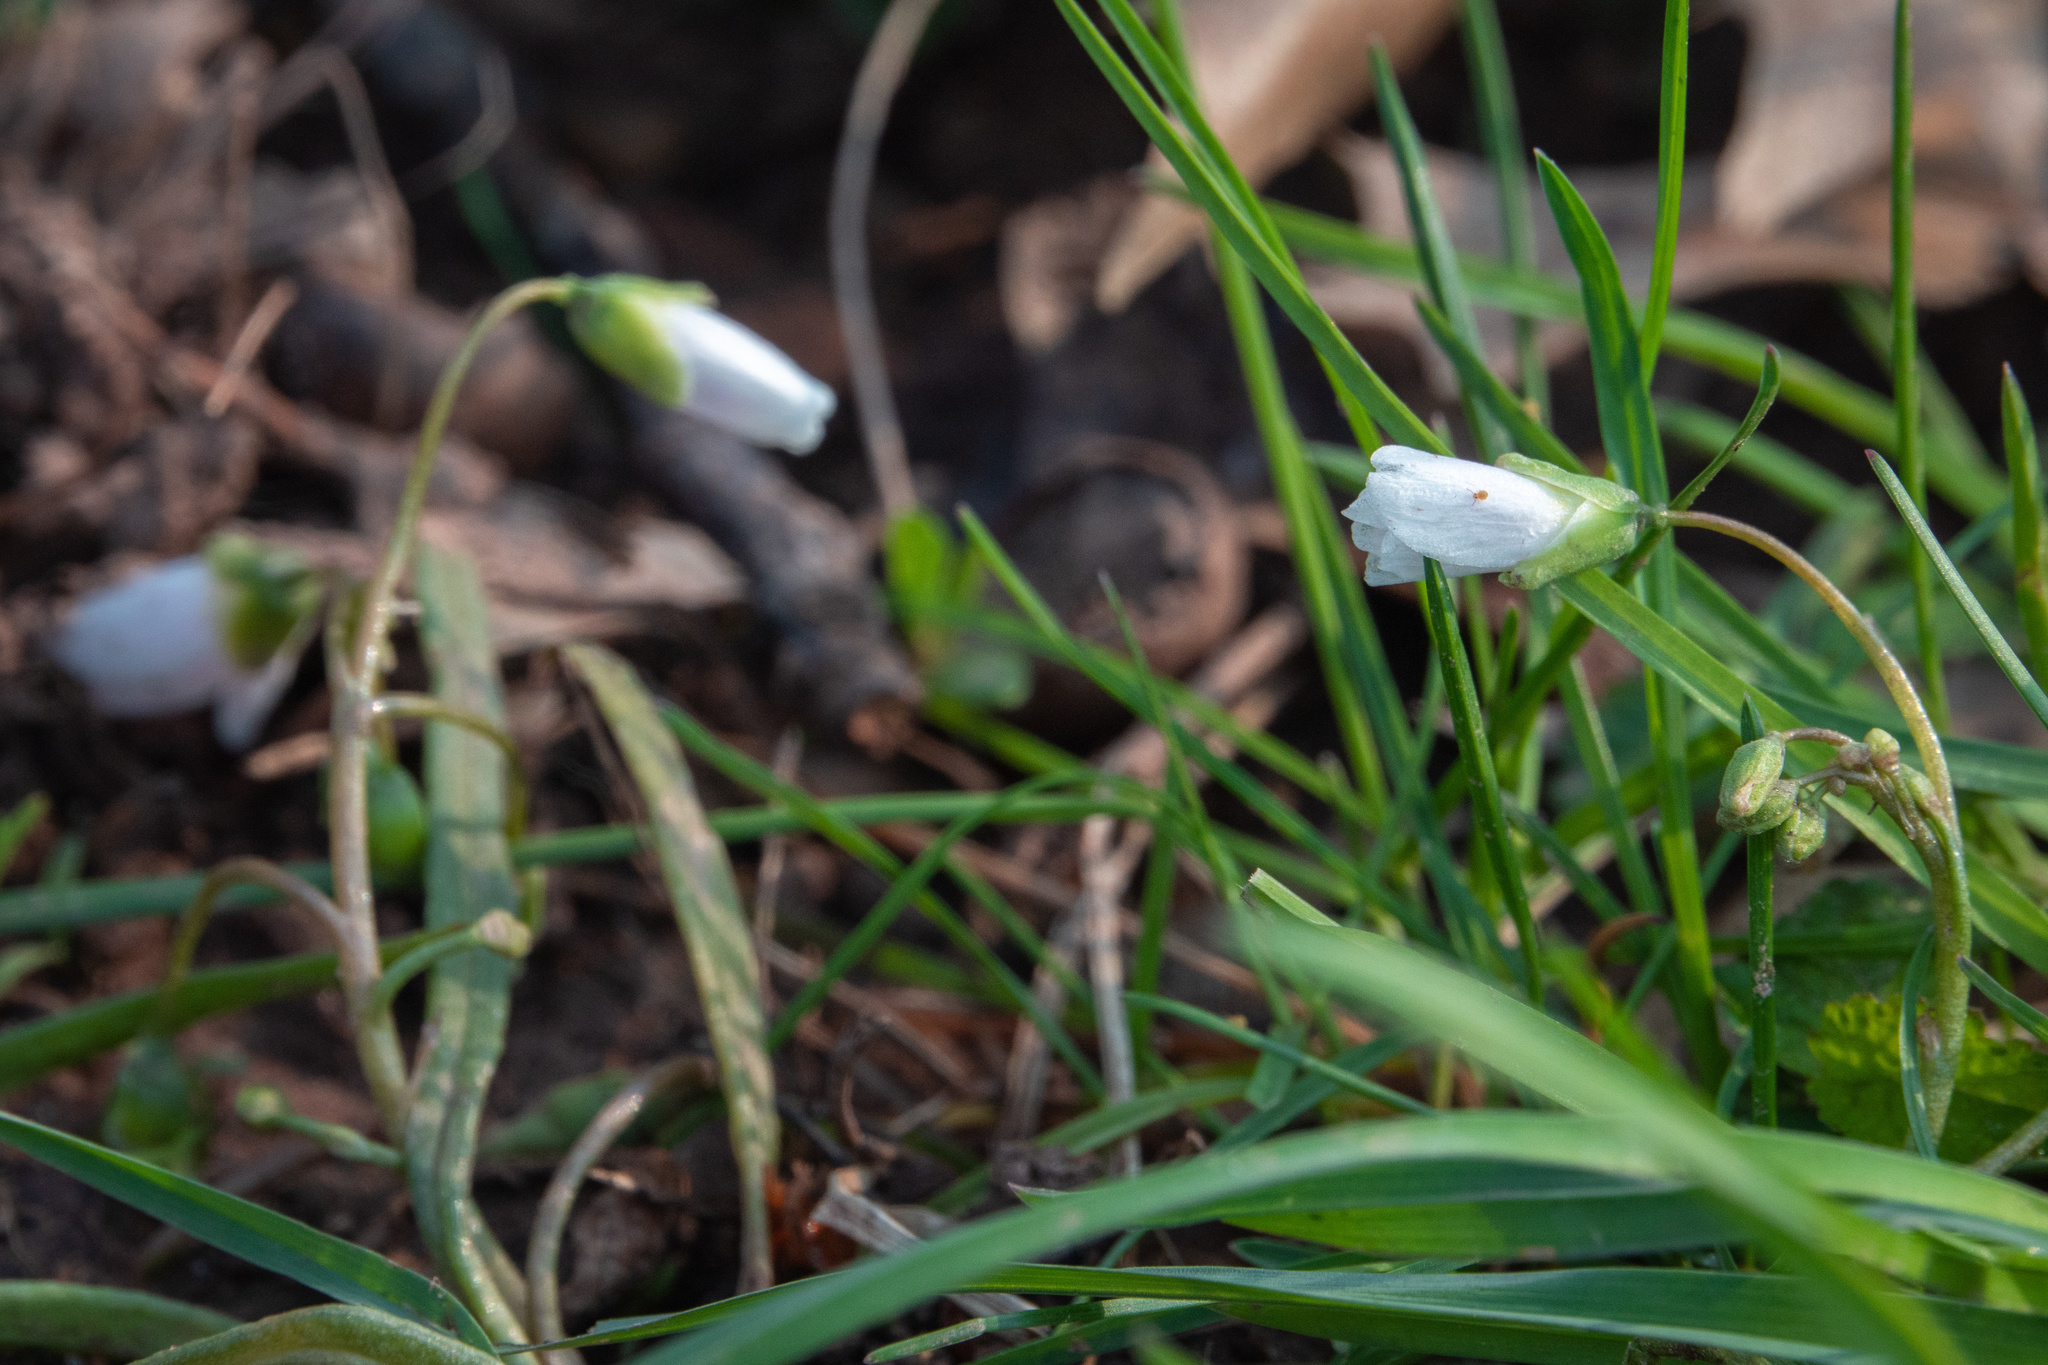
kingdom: Plantae
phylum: Tracheophyta
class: Magnoliopsida
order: Caryophyllales
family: Montiaceae
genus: Claytonia
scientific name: Claytonia virginica
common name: Virginia springbeauty
